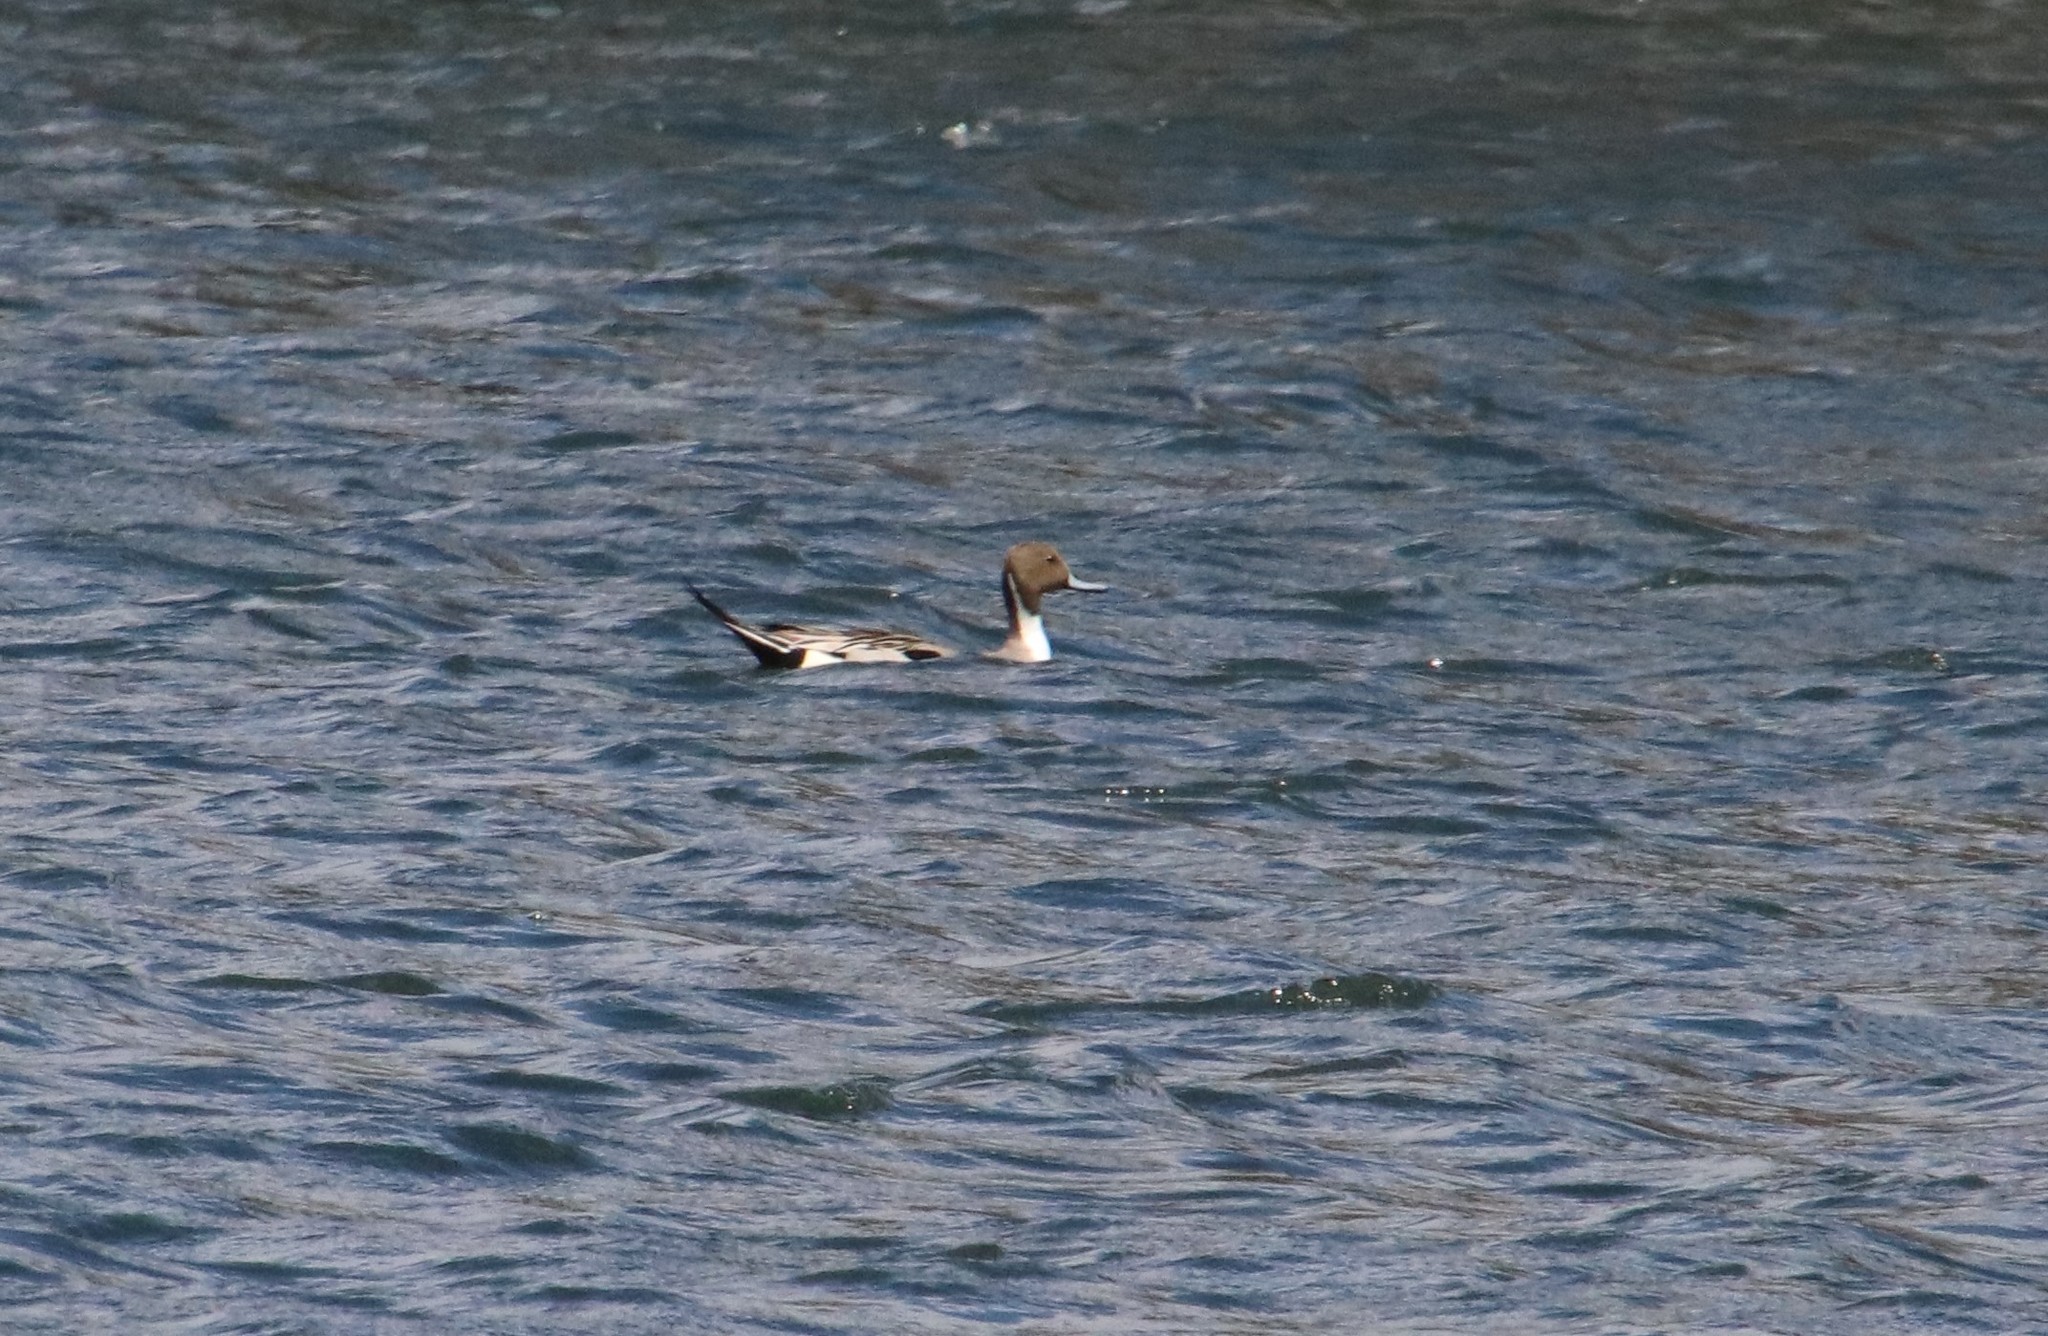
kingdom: Animalia
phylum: Chordata
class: Aves
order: Anseriformes
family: Anatidae
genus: Anas
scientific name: Anas acuta
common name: Northern pintail
